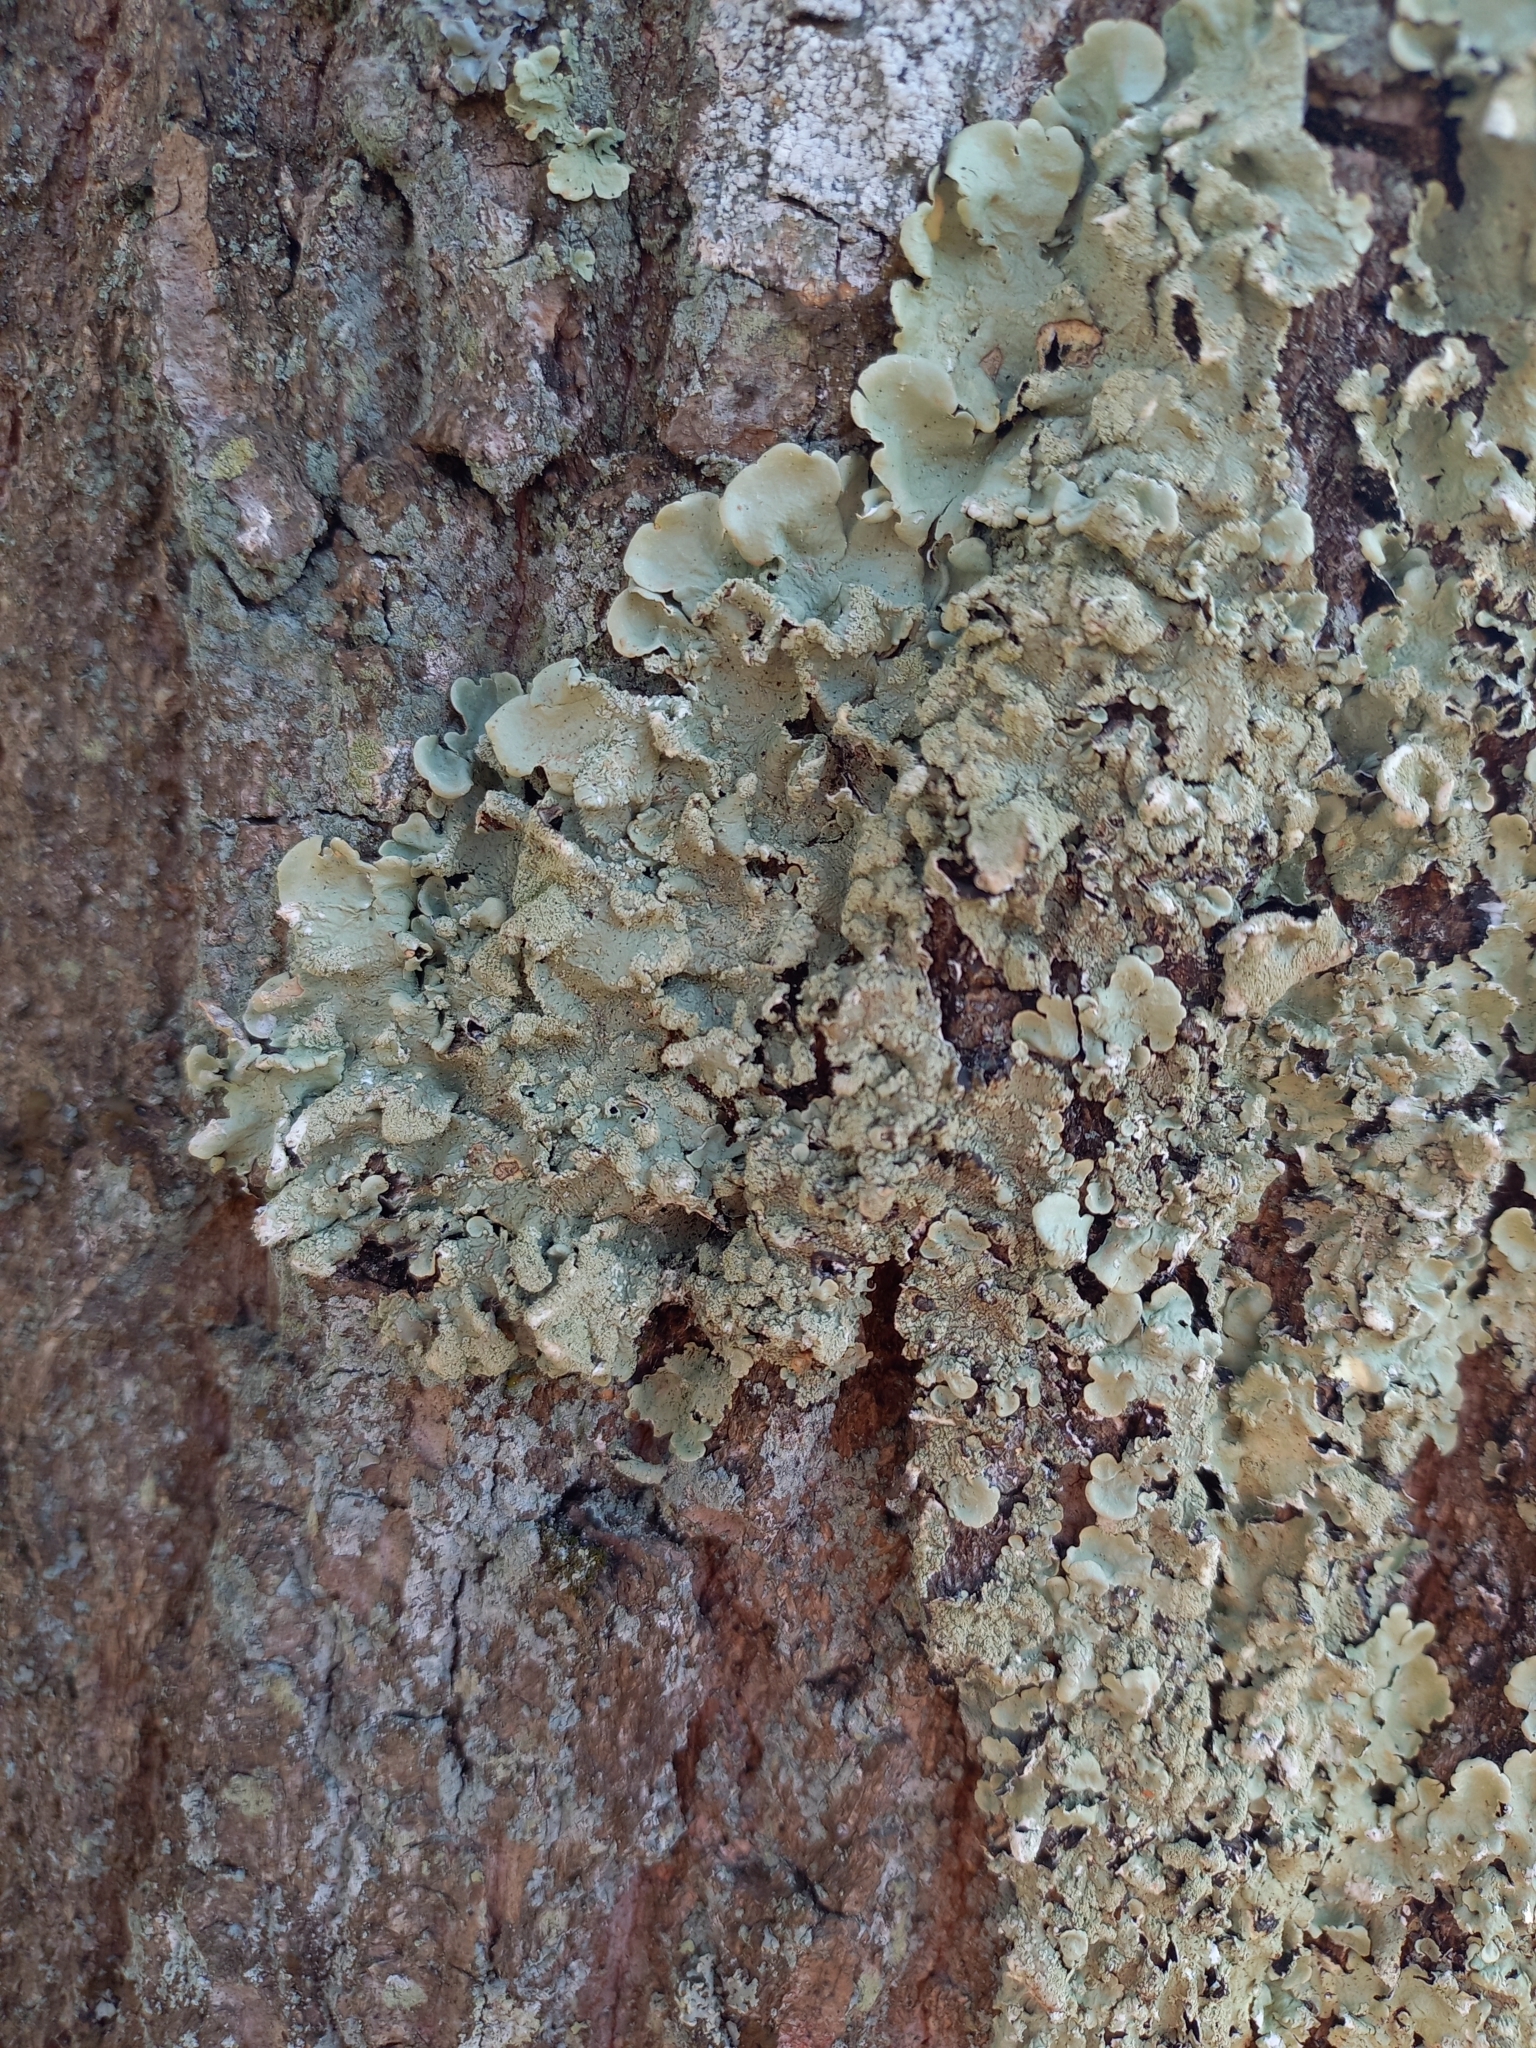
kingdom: Fungi
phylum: Ascomycota
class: Lecanoromycetes
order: Lecanorales
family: Parmeliaceae
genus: Flavoparmelia
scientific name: Flavoparmelia caperata
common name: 40-mile per hour lichen
